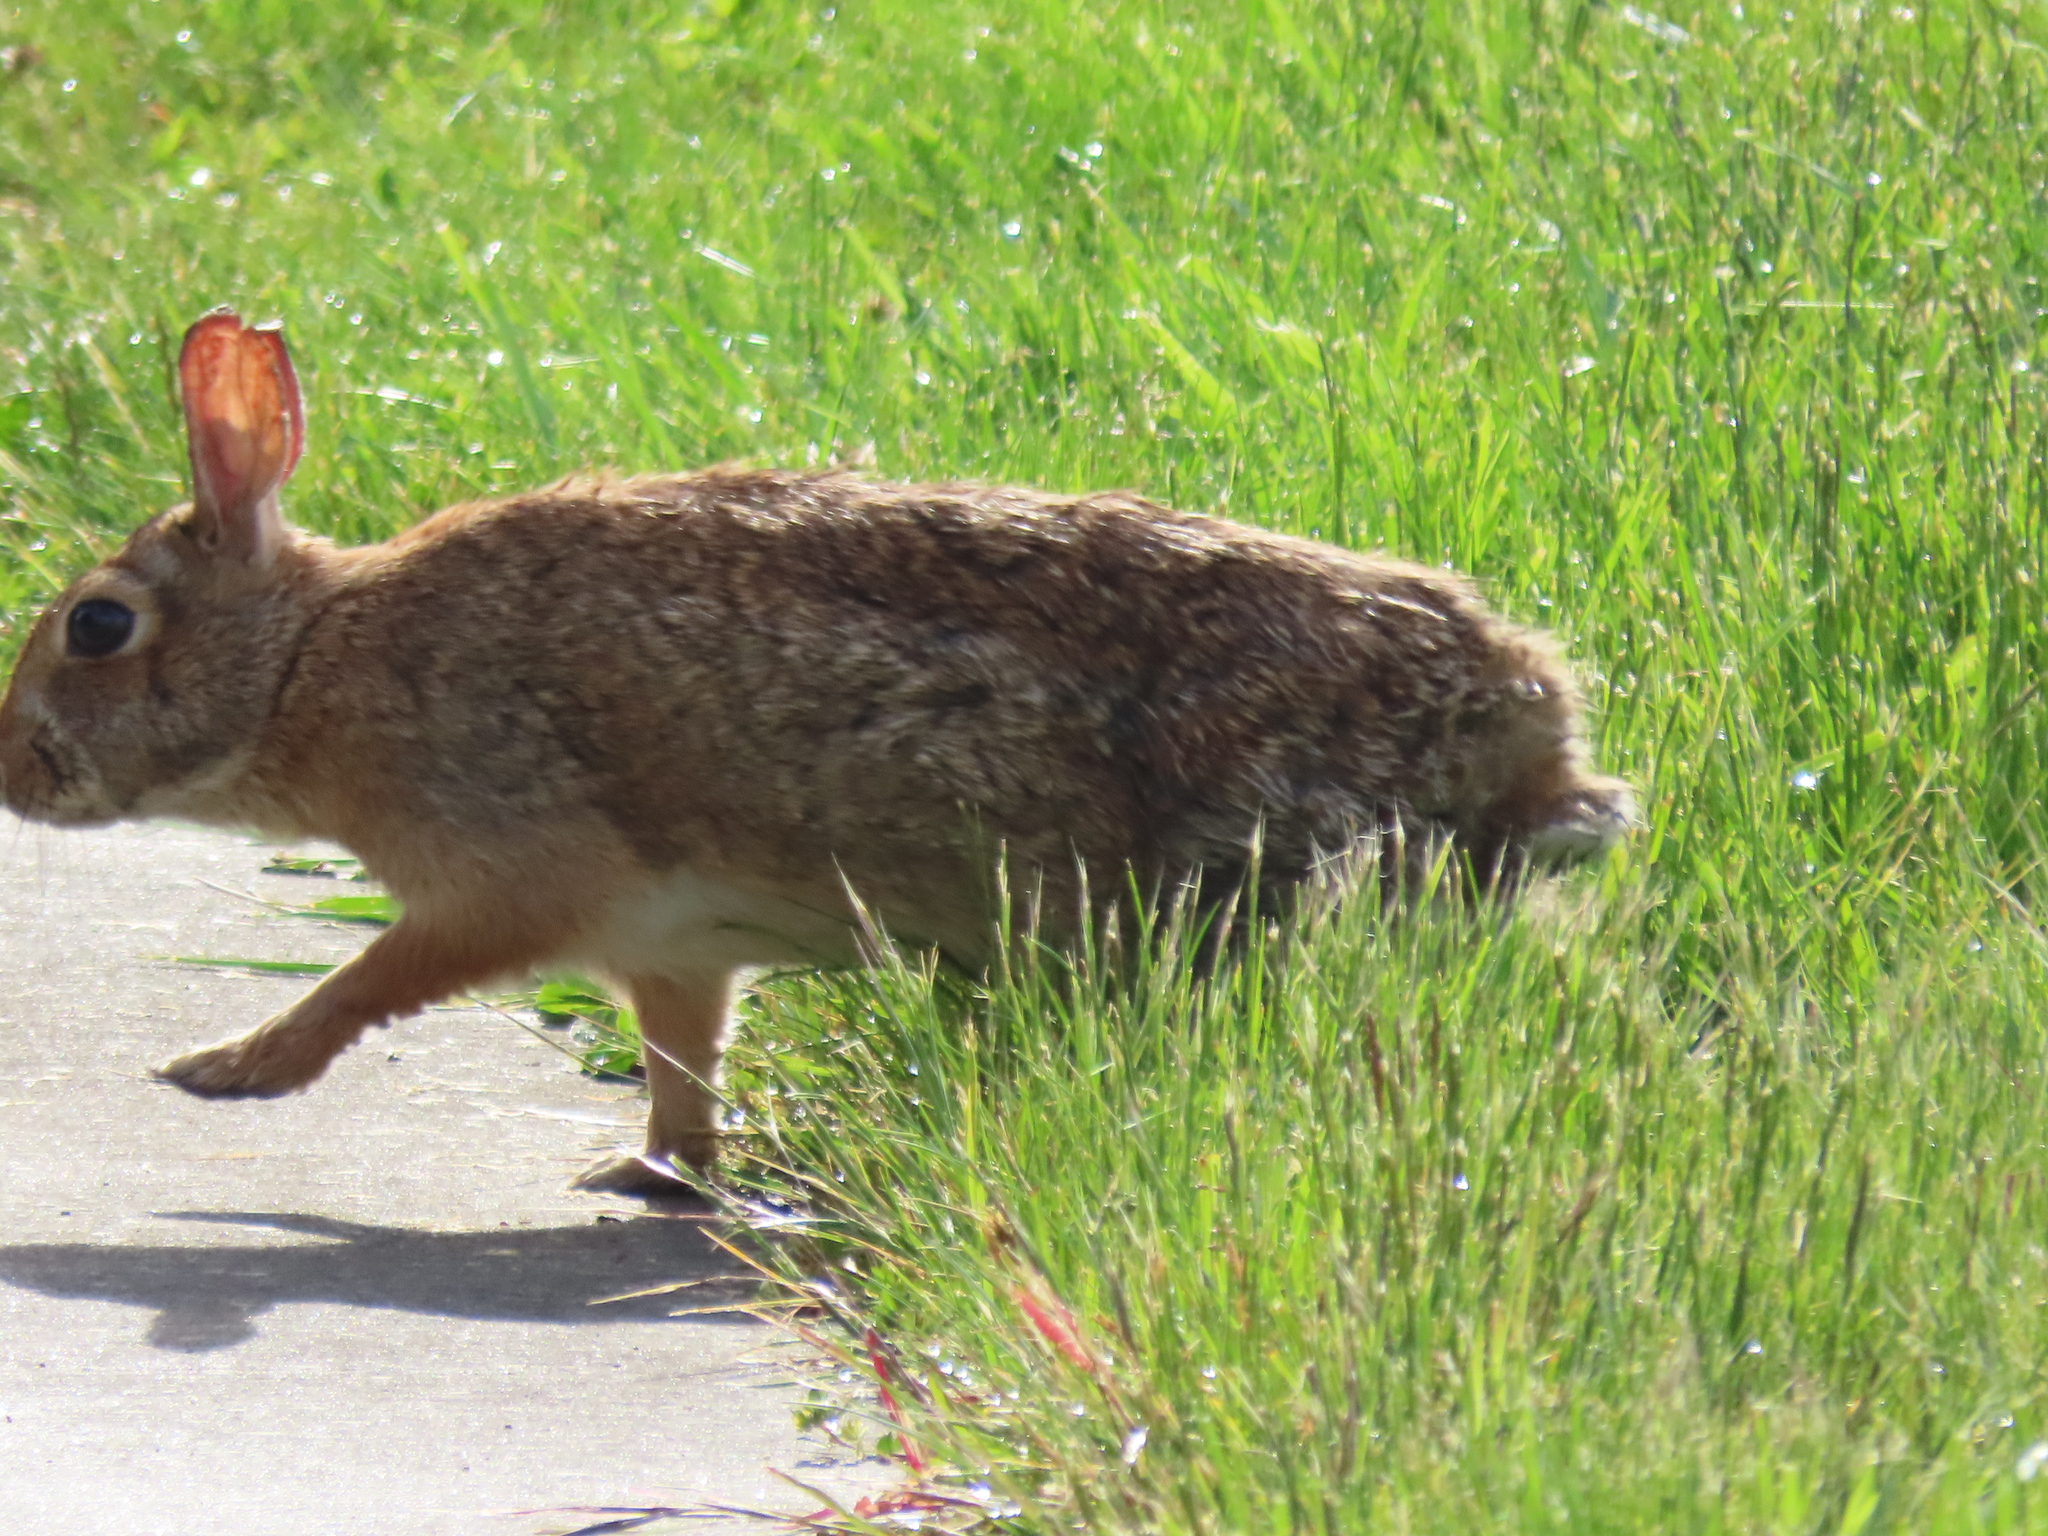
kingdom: Animalia
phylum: Chordata
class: Mammalia
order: Lagomorpha
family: Leporidae
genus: Sylvilagus
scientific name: Sylvilagus floridanus
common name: Eastern cottontail
